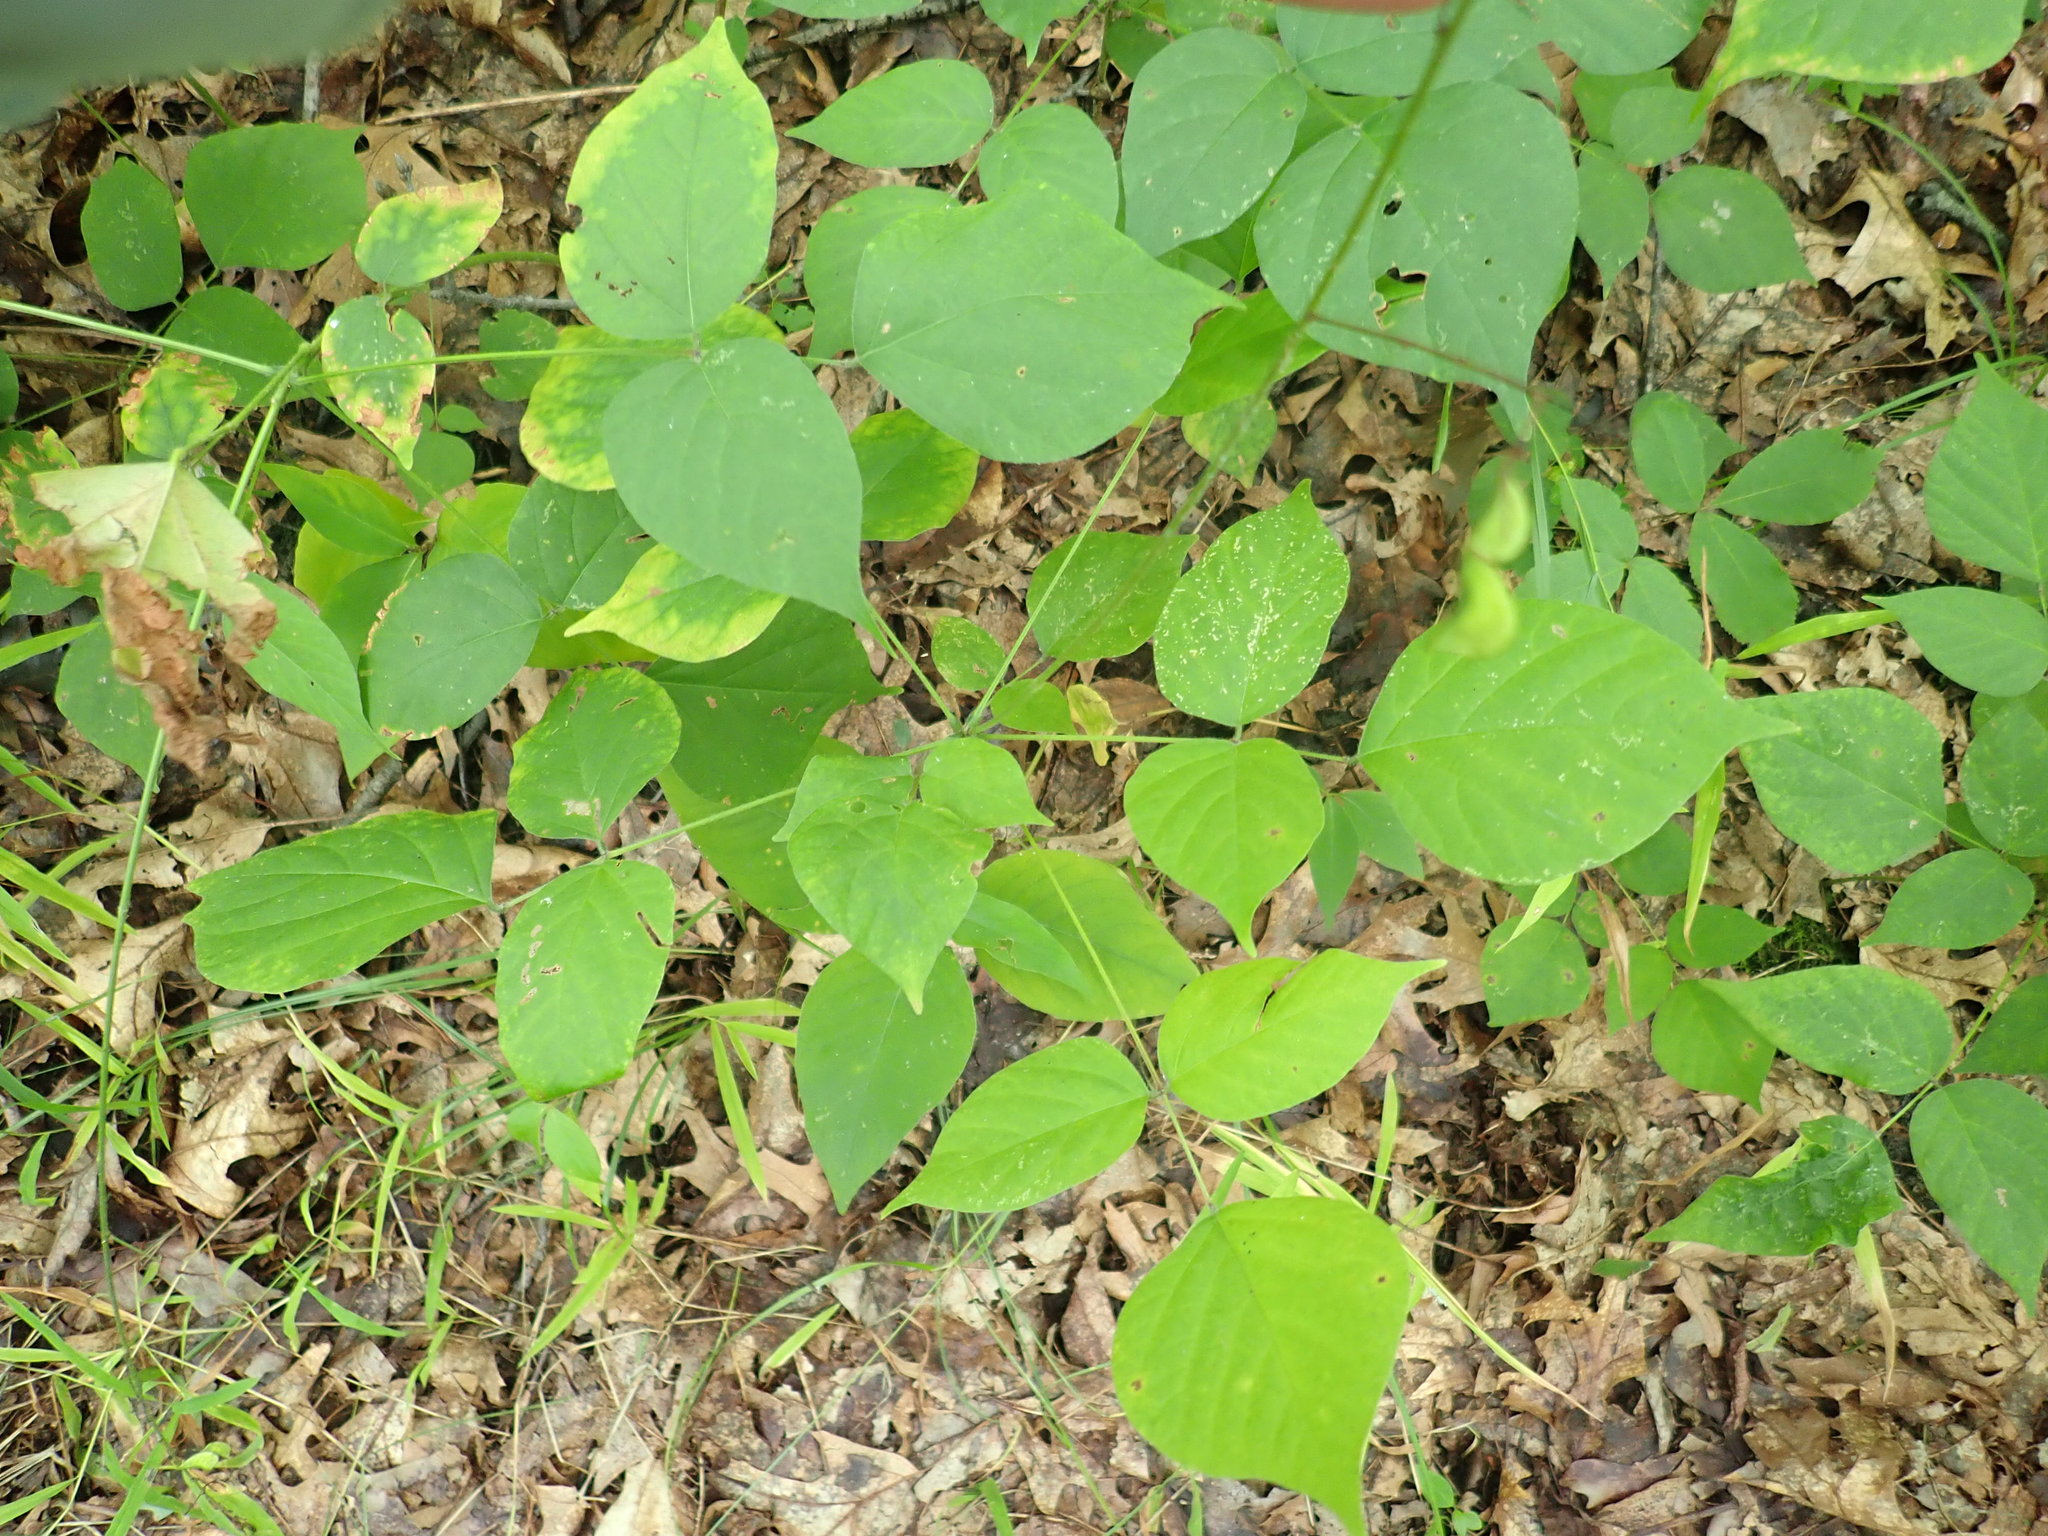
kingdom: Plantae
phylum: Tracheophyta
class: Magnoliopsida
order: Fabales
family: Fabaceae
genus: Hylodesmum
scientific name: Hylodesmum glutinosum
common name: Clustered-leaved tick-trefoil
